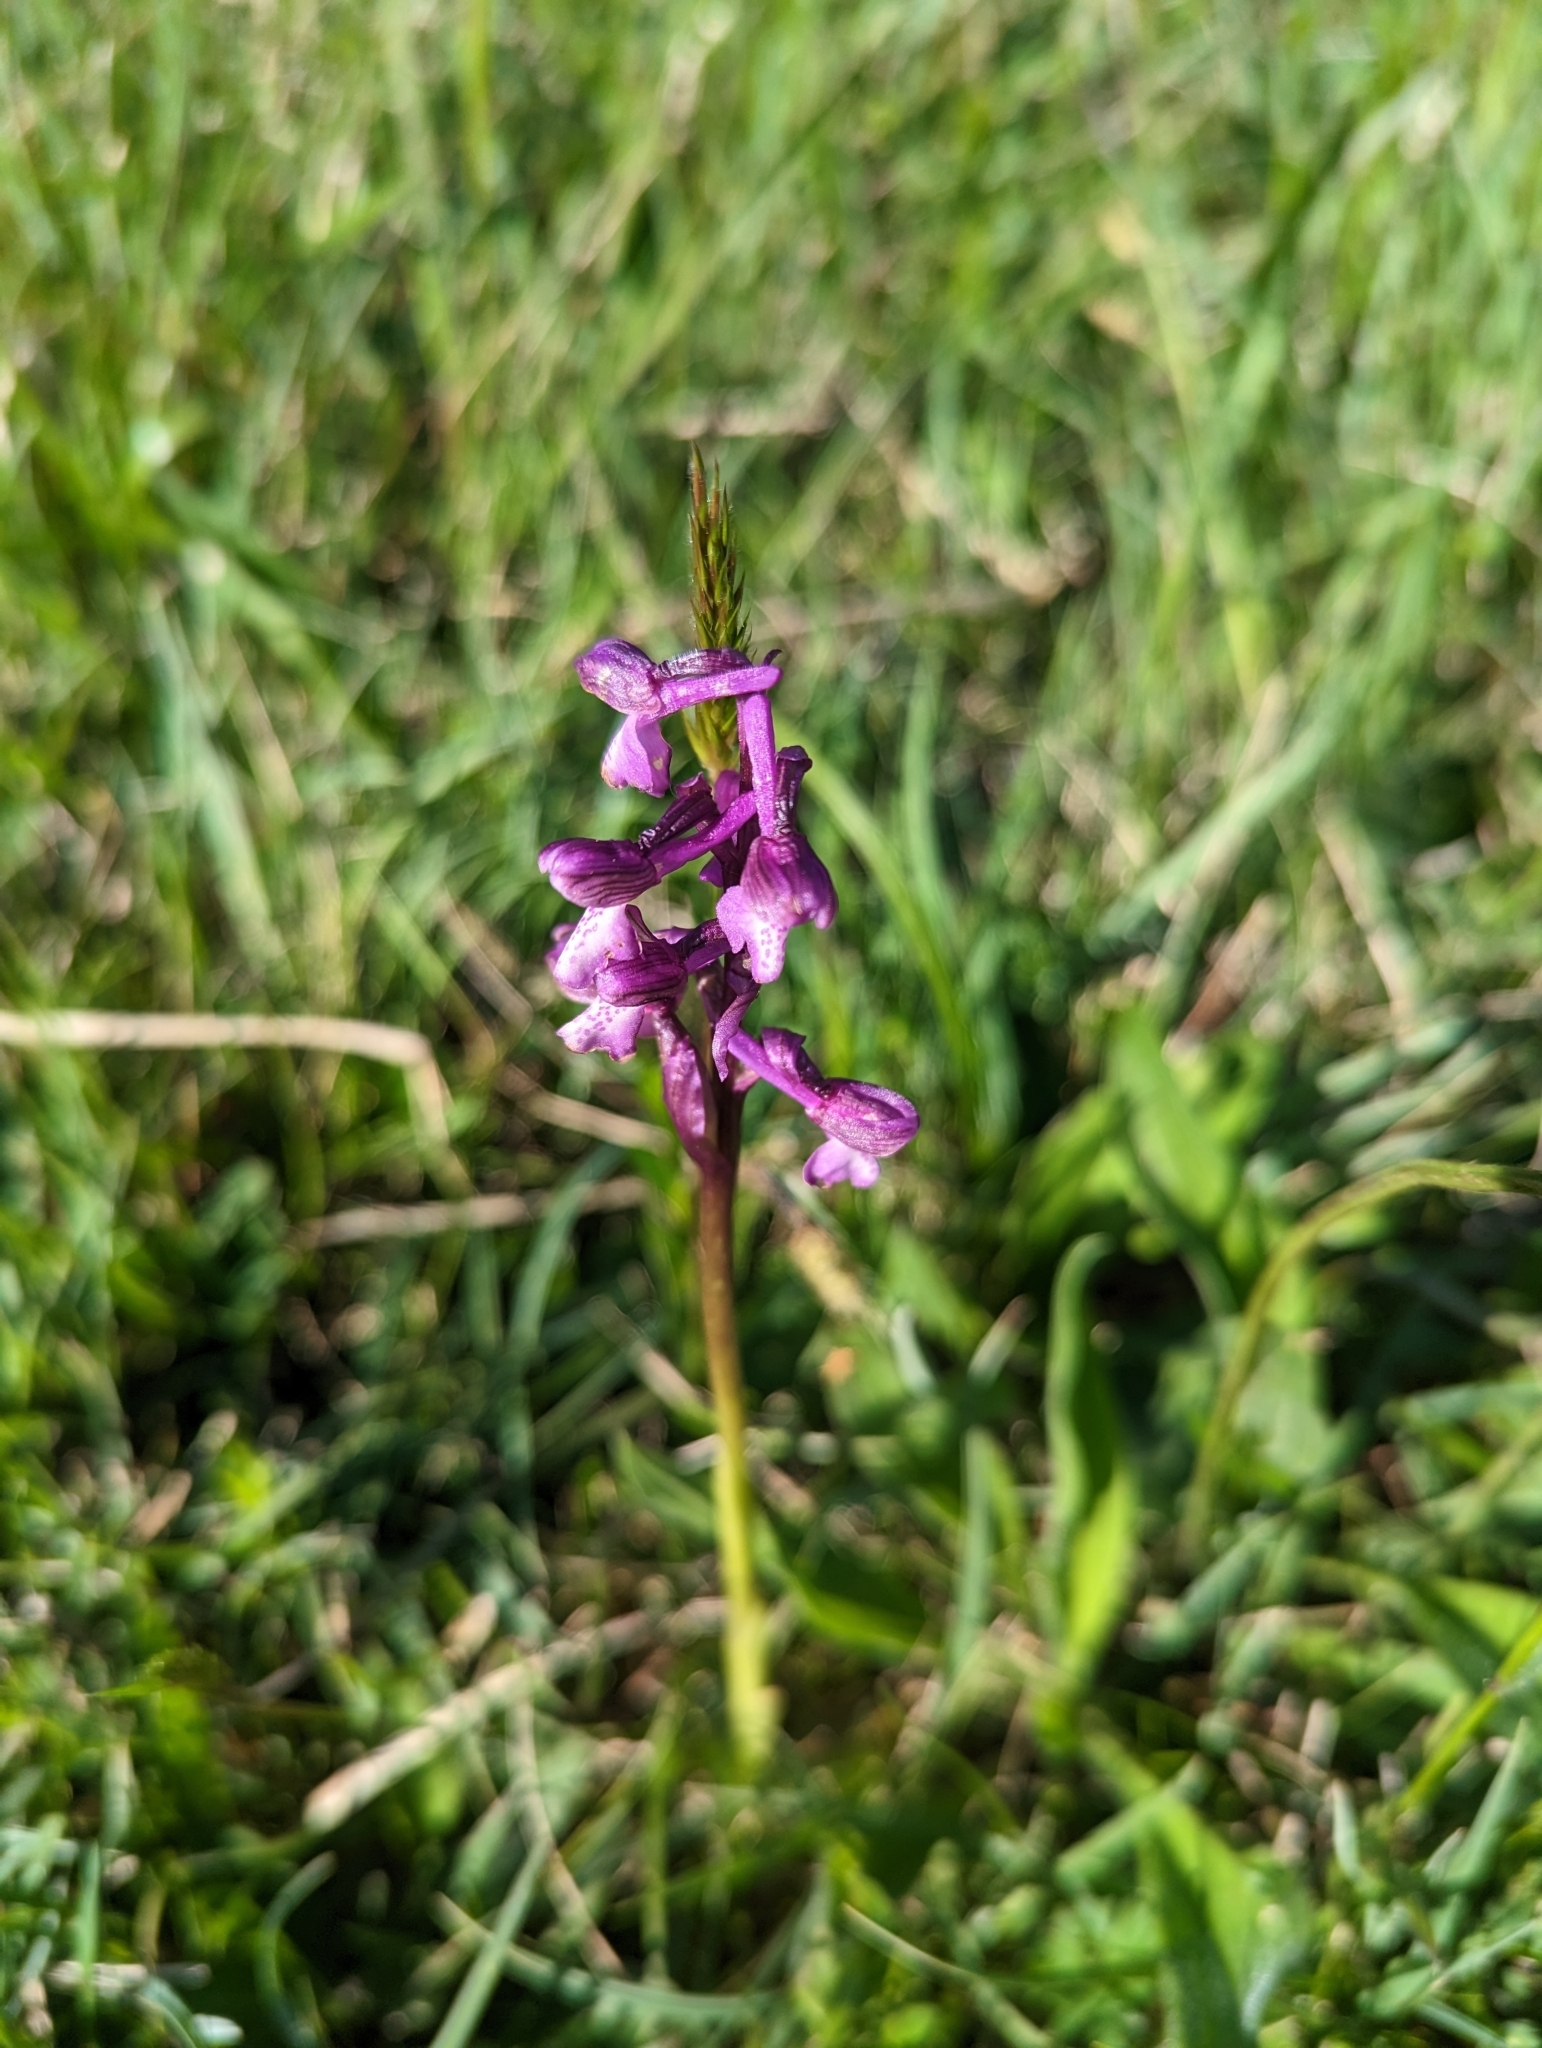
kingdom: Plantae
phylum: Tracheophyta
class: Liliopsida
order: Asparagales
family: Orchidaceae
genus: Anacamptis
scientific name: Anacamptis morio
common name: Green-winged orchid
